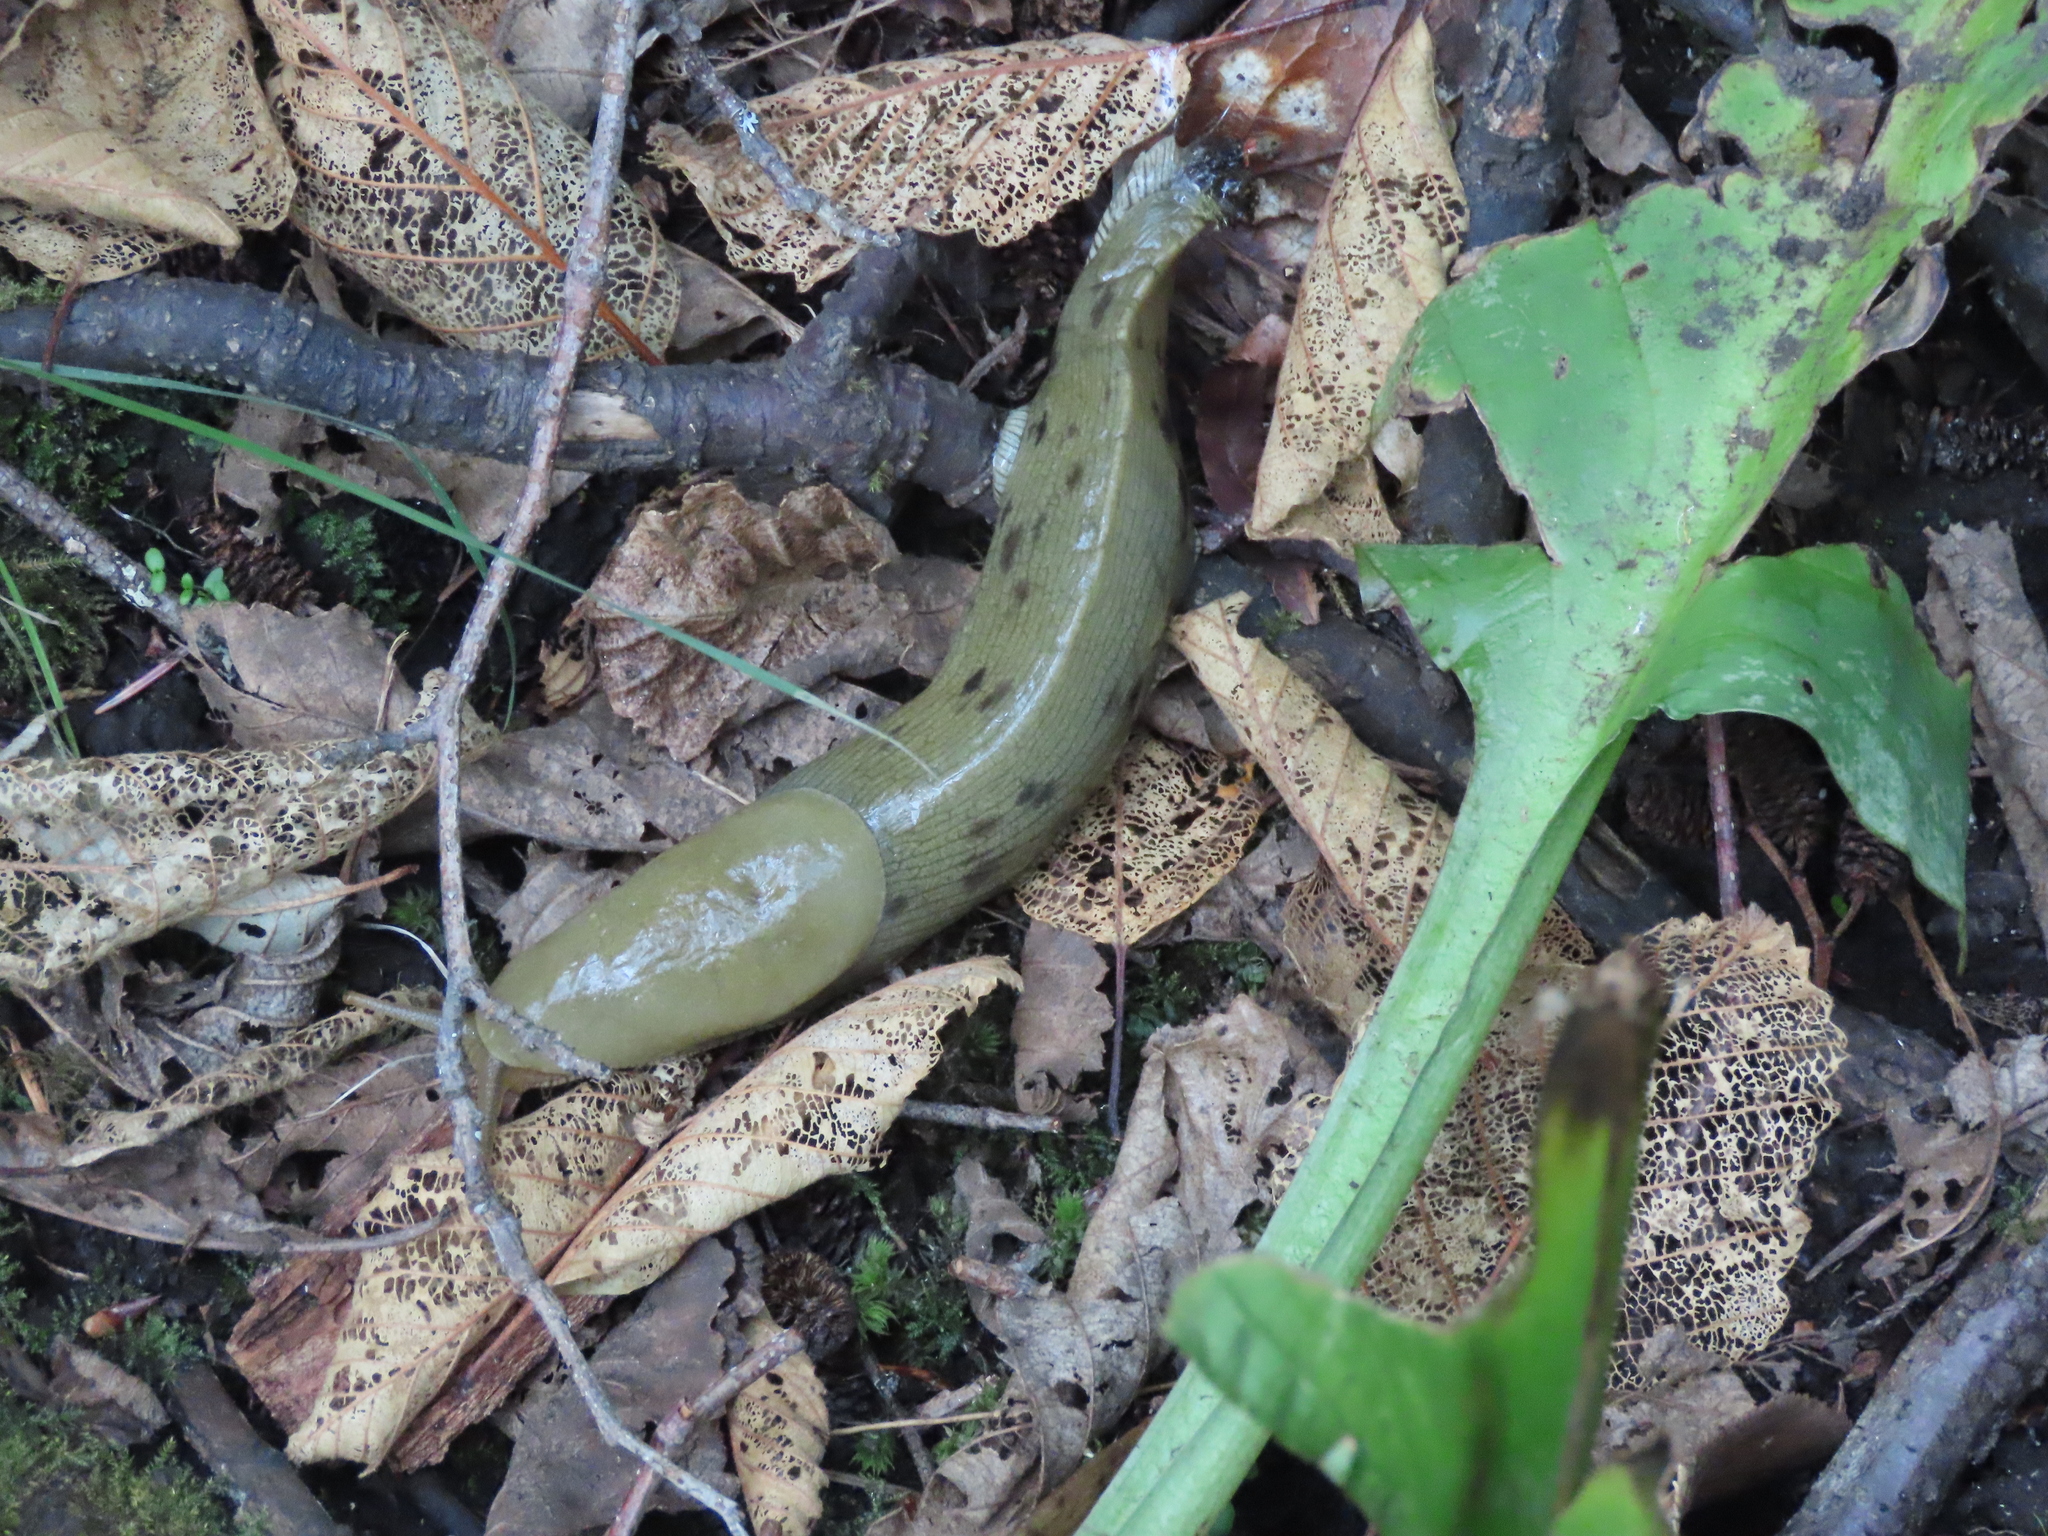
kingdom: Animalia
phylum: Mollusca
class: Gastropoda
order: Stylommatophora
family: Ariolimacidae
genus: Ariolimax
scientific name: Ariolimax columbianus
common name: Pacific banana slug
